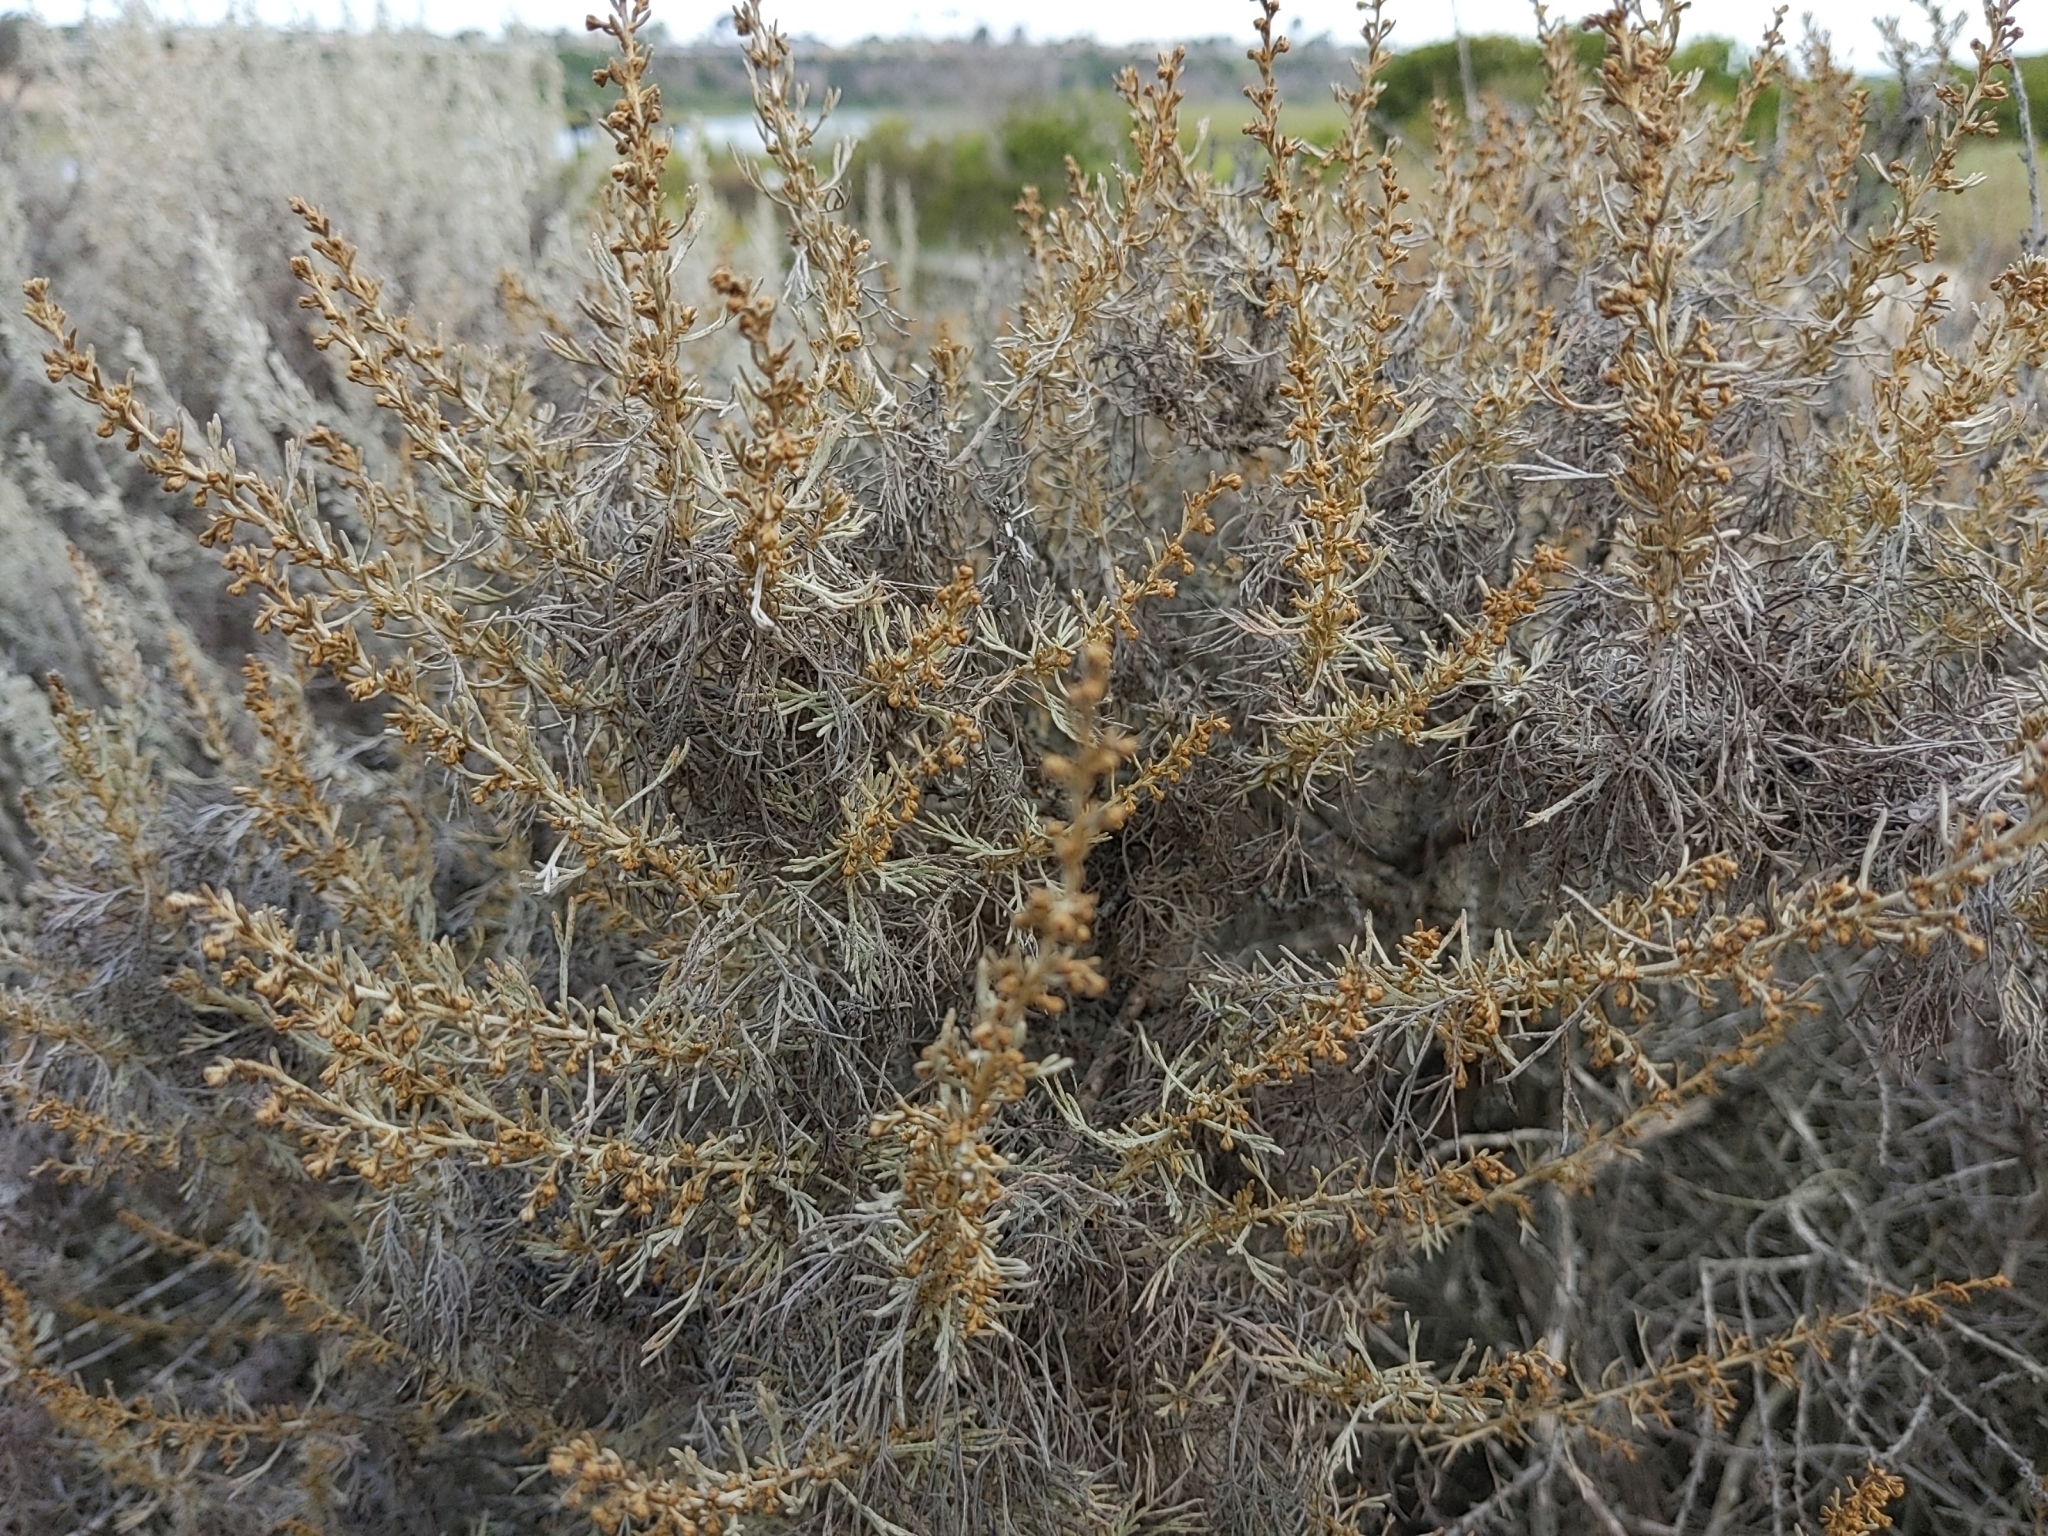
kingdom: Plantae
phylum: Tracheophyta
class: Magnoliopsida
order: Asterales
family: Asteraceae
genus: Artemisia
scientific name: Artemisia californica
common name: California sagebrush
